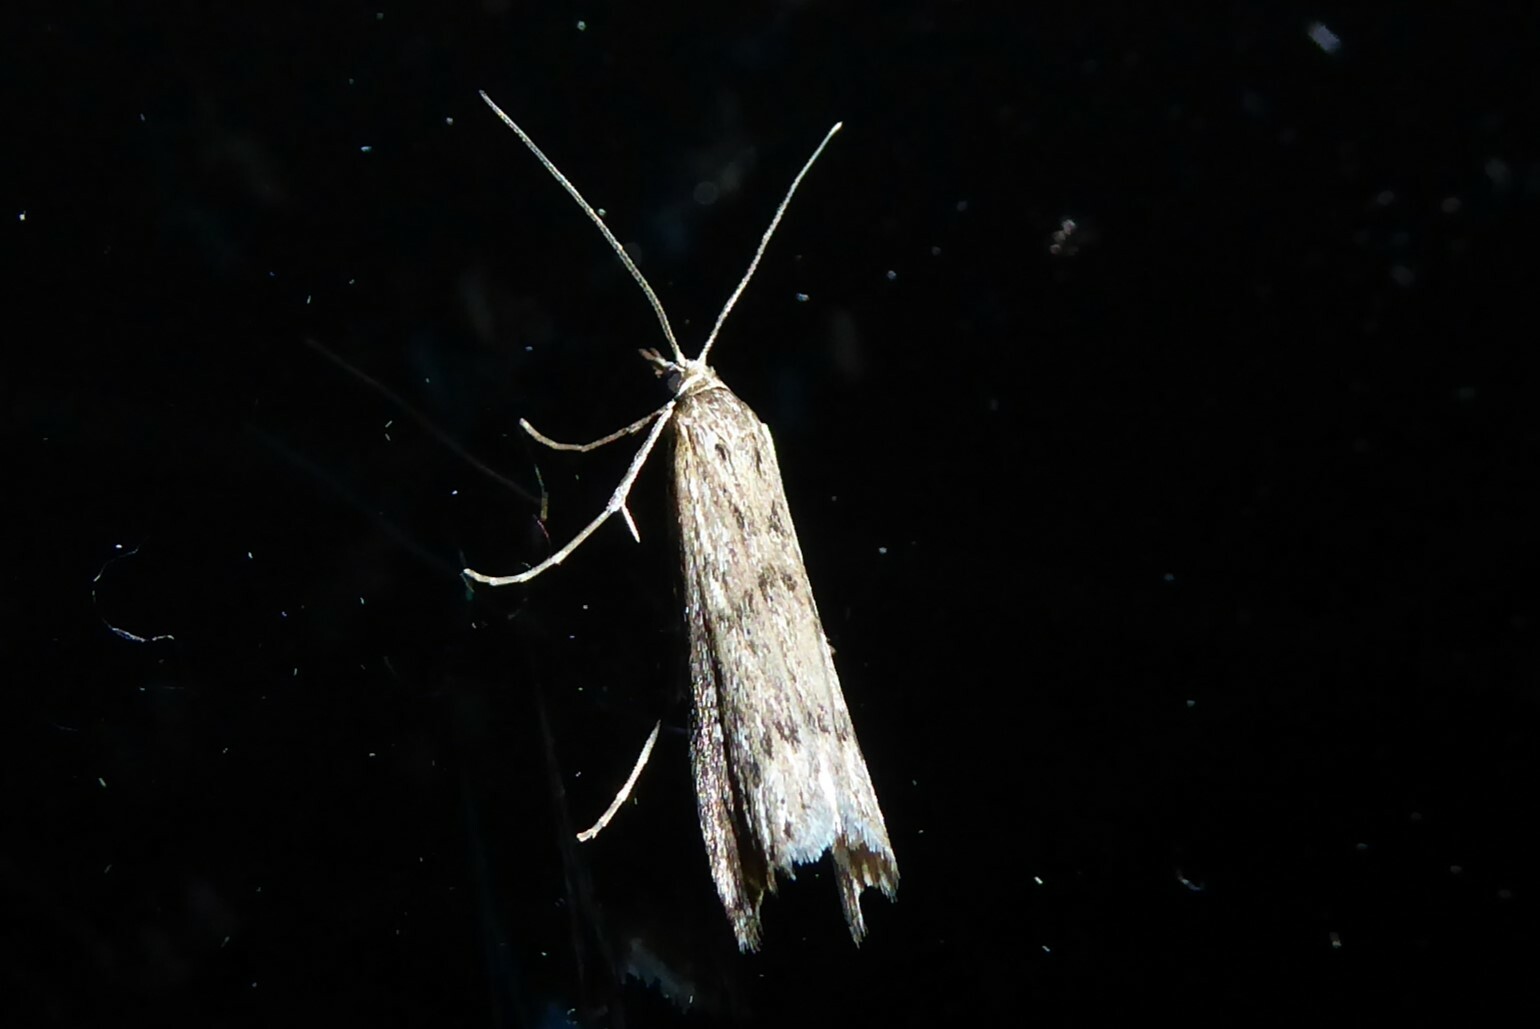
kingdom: Animalia
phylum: Arthropoda
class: Insecta
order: Lepidoptera
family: Crambidae
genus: Orocrambus
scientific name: Orocrambus cyclopicus
